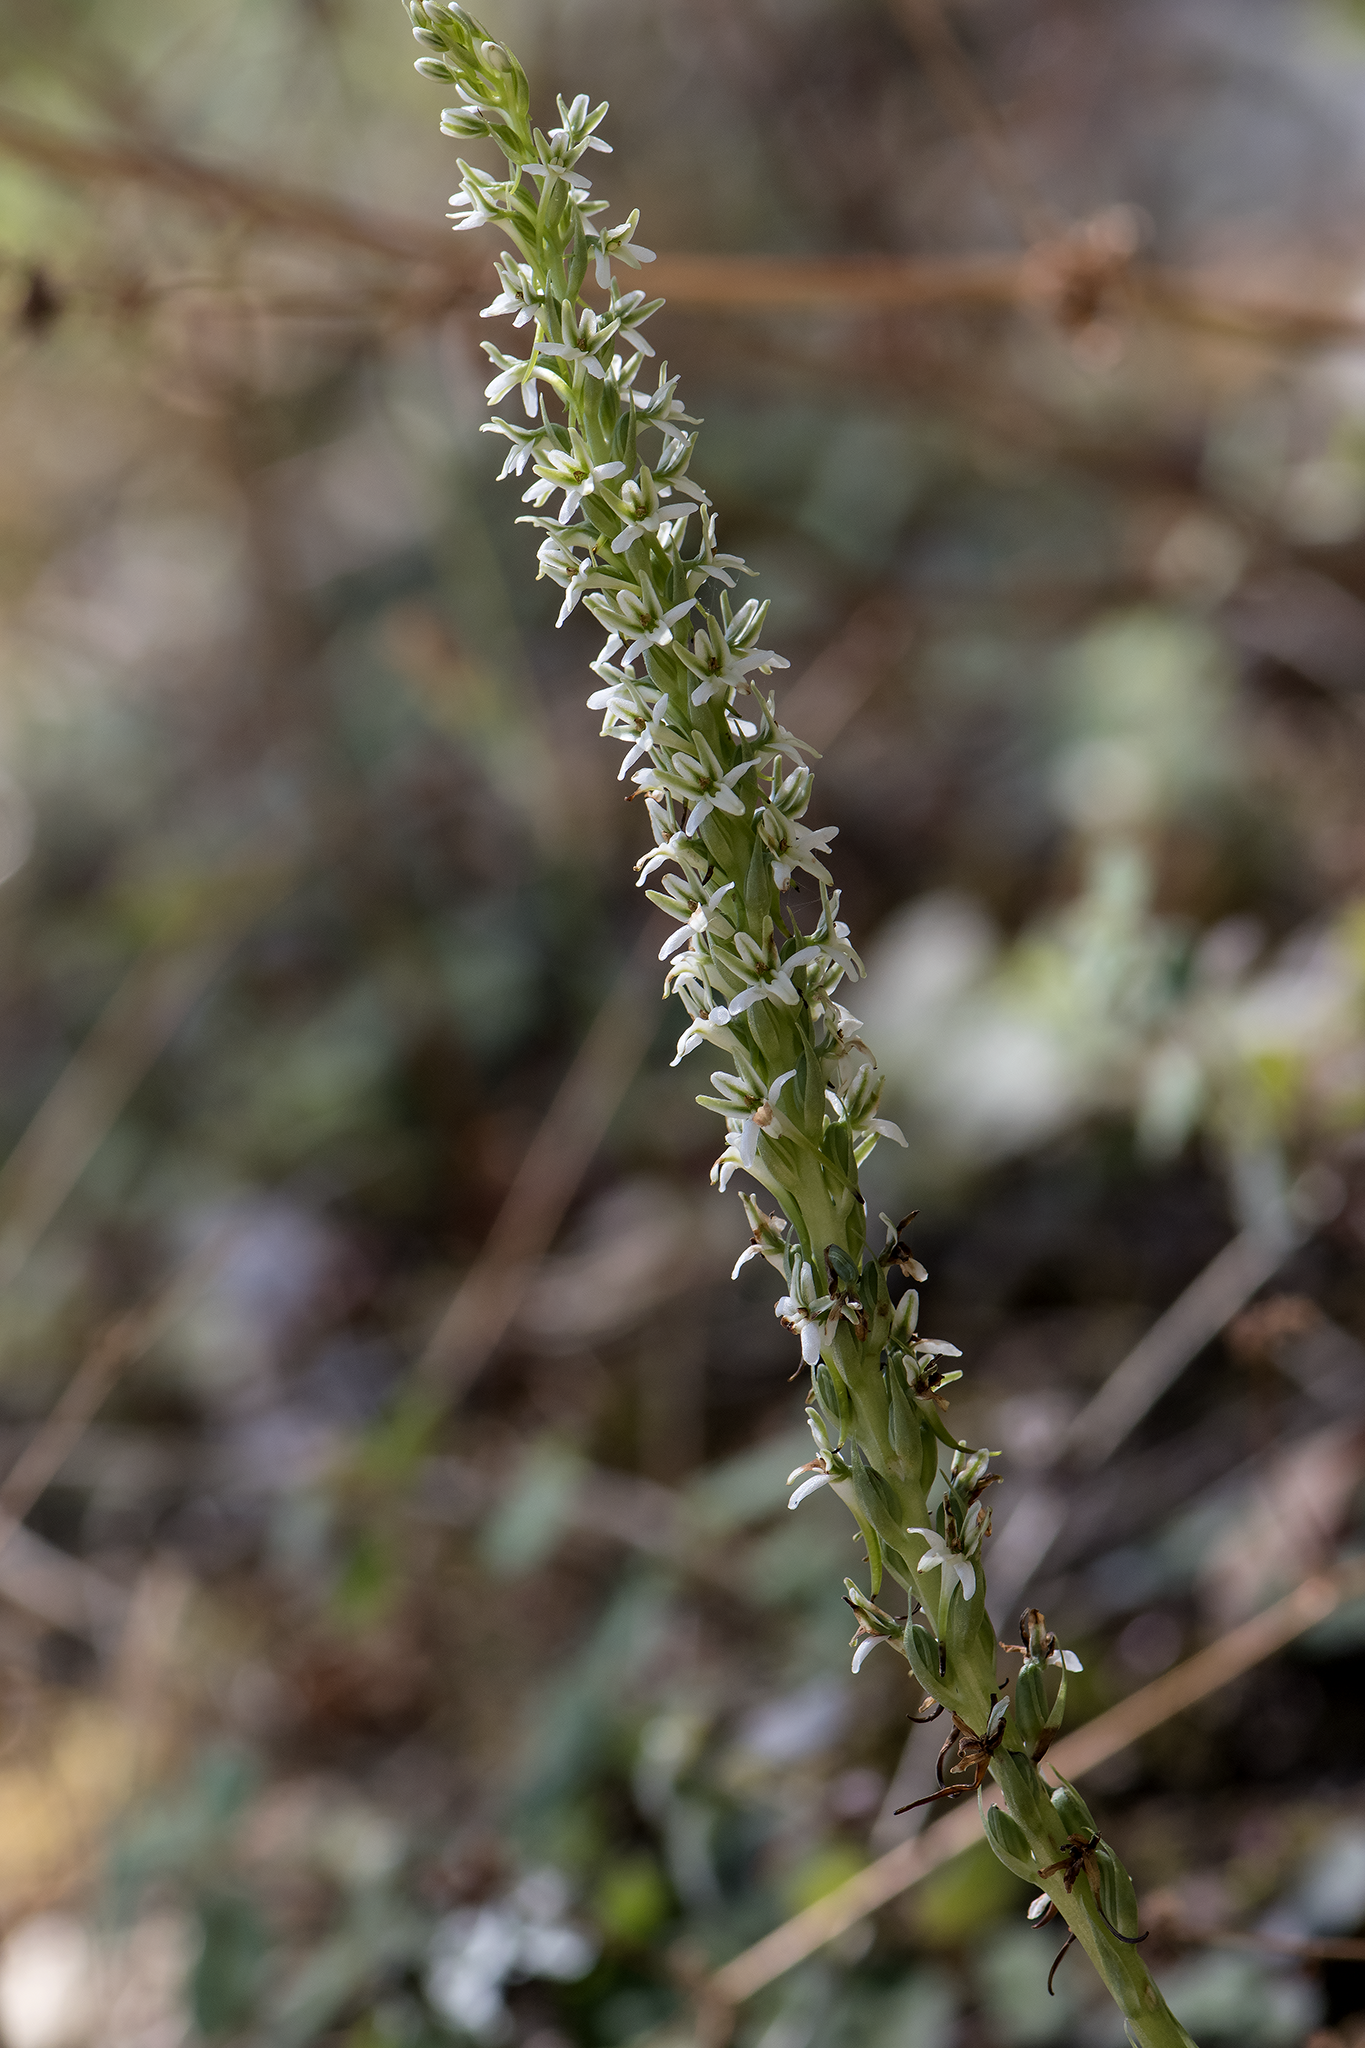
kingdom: Plantae
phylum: Tracheophyta
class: Liliopsida
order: Asparagales
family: Orchidaceae
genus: Platanthera
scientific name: Platanthera elegans
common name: Coast piperia
